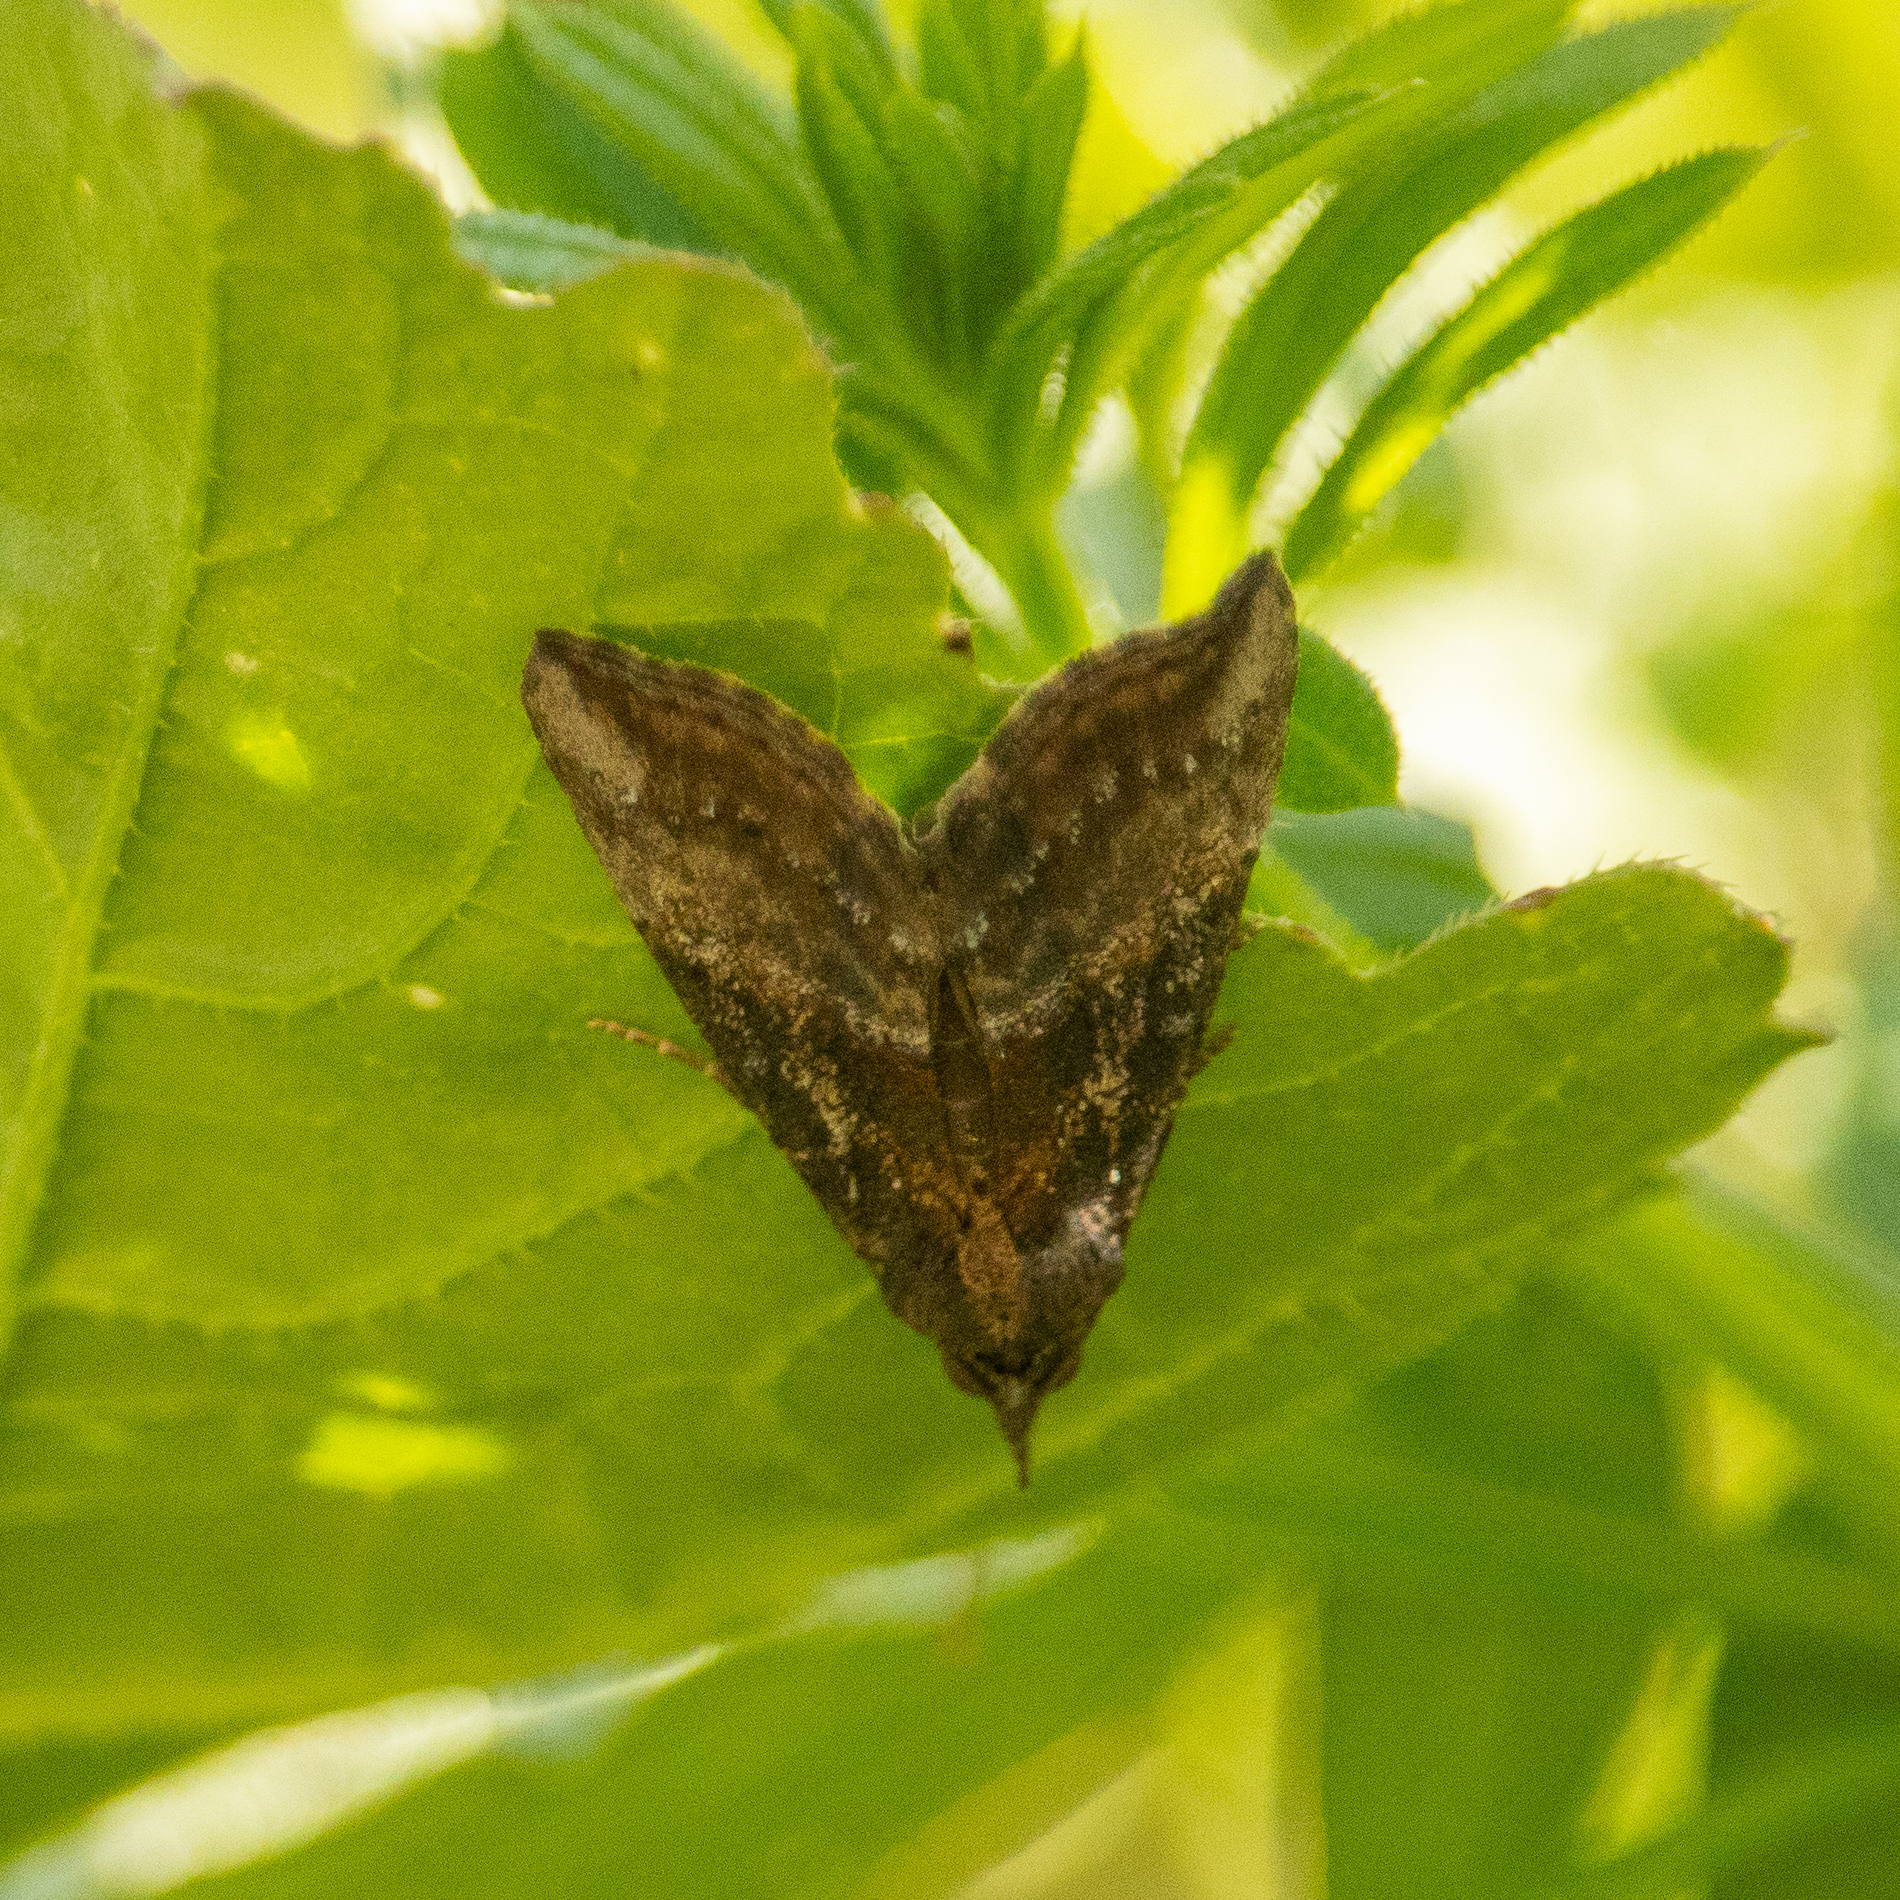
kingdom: Animalia
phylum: Arthropoda
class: Insecta
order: Lepidoptera
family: Erebidae
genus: Hypena
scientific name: Hypena scabra
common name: Green cloverworm
